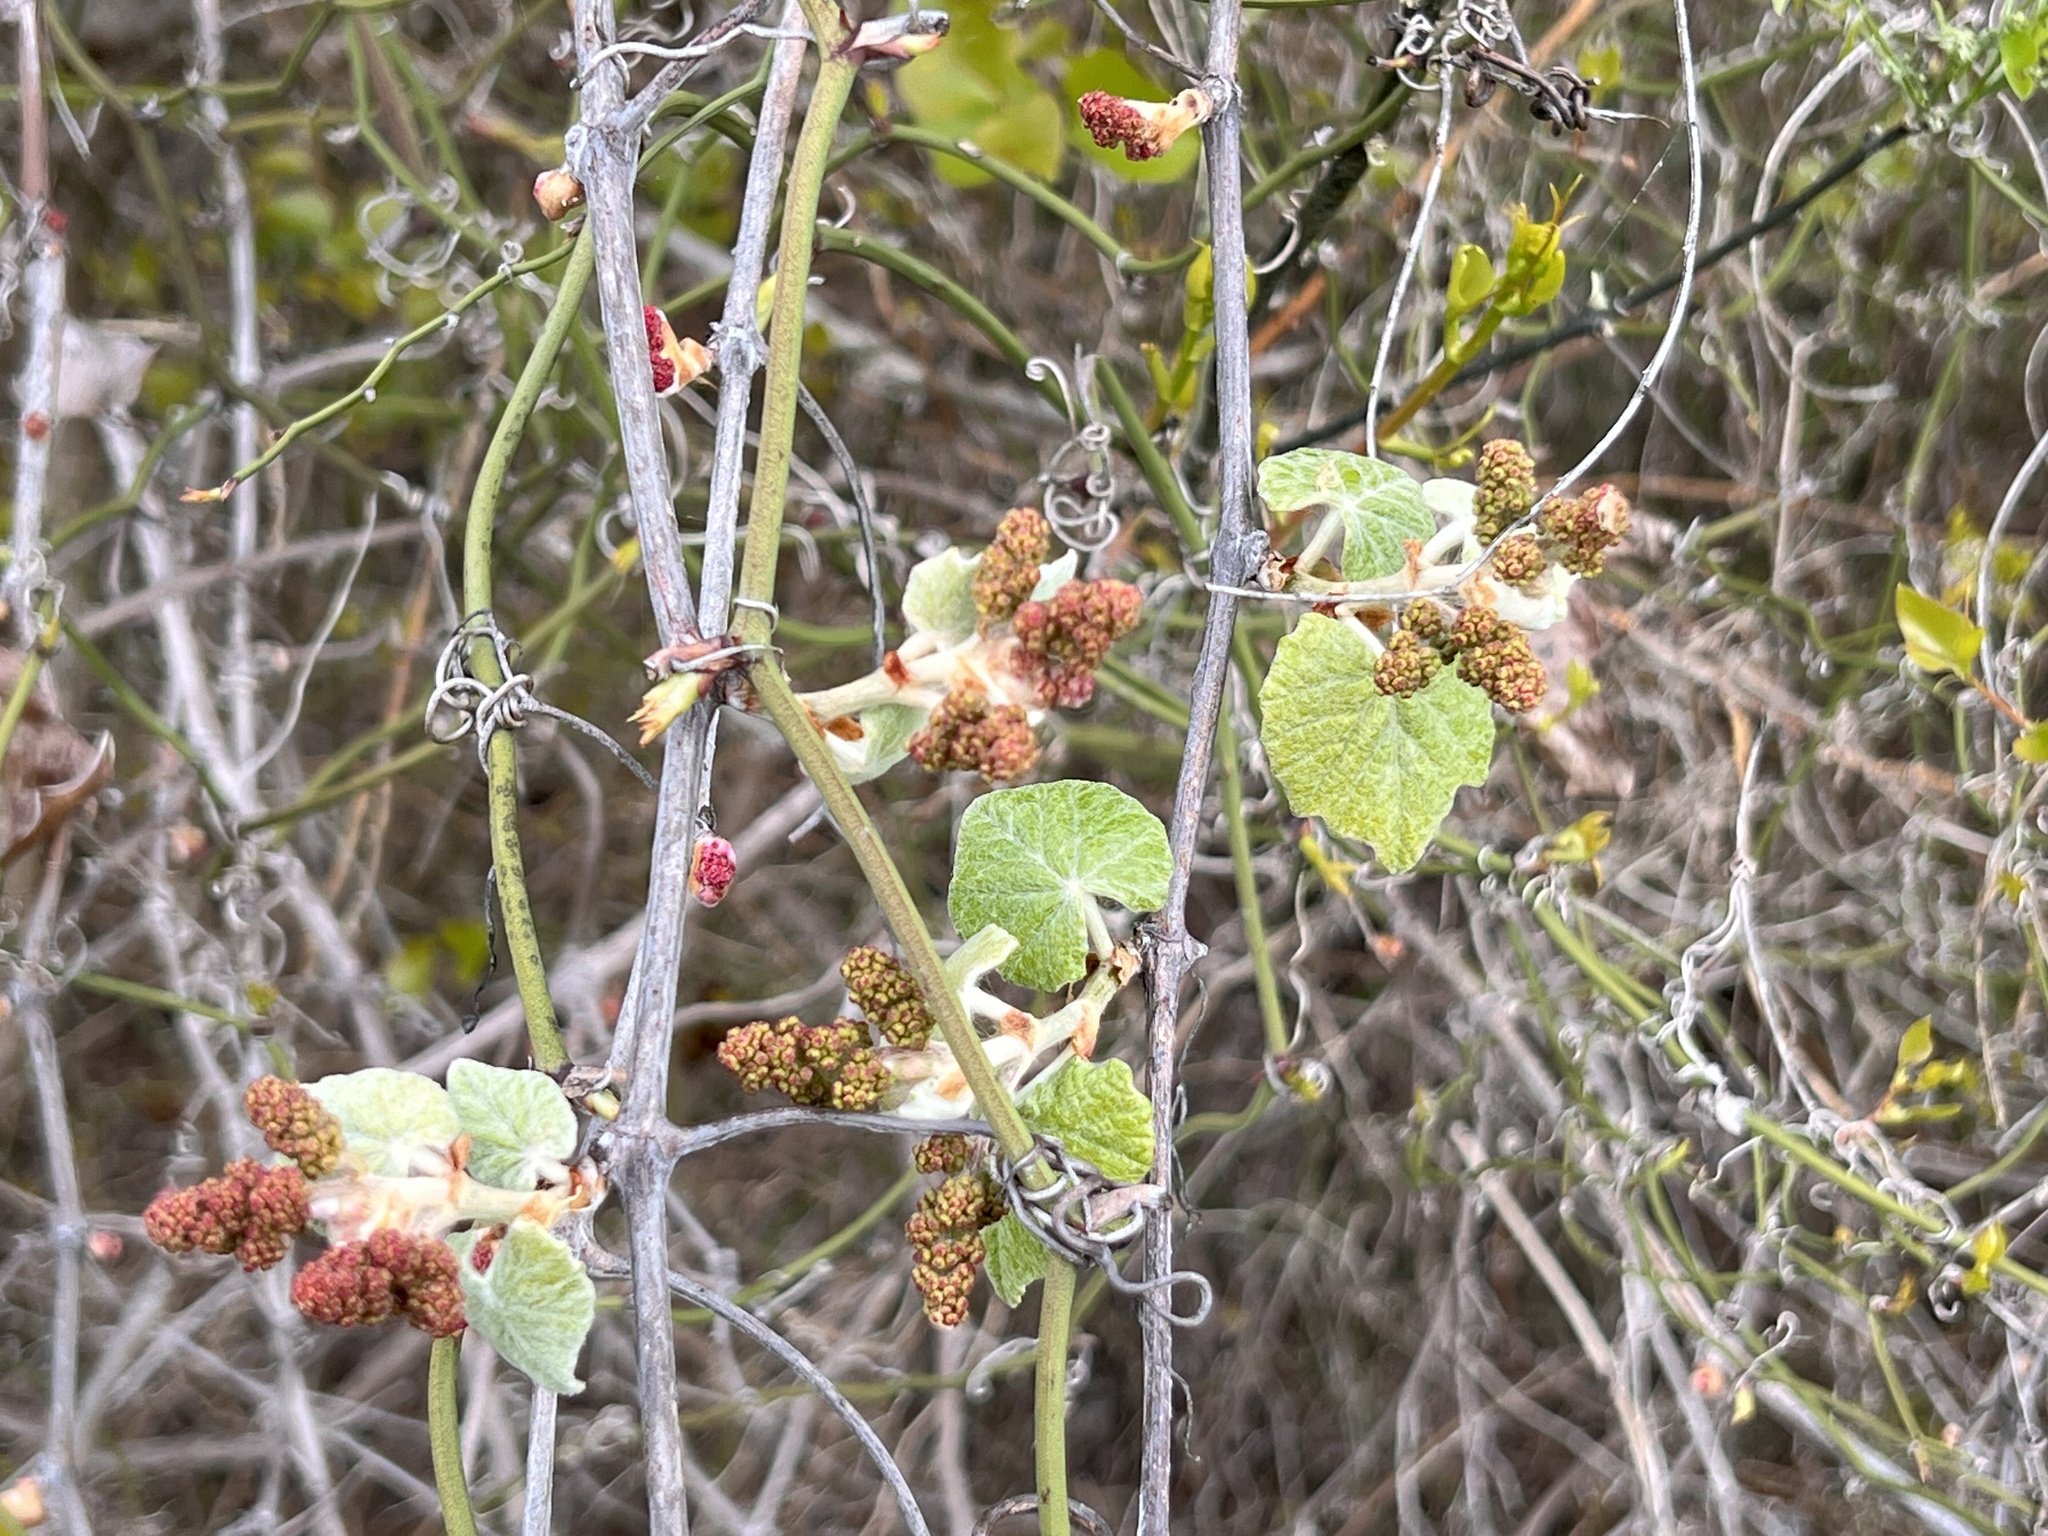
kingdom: Plantae
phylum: Tracheophyta
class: Magnoliopsida
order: Vitales
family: Vitaceae
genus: Vitis
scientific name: Vitis mustangensis
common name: Mustang grape
